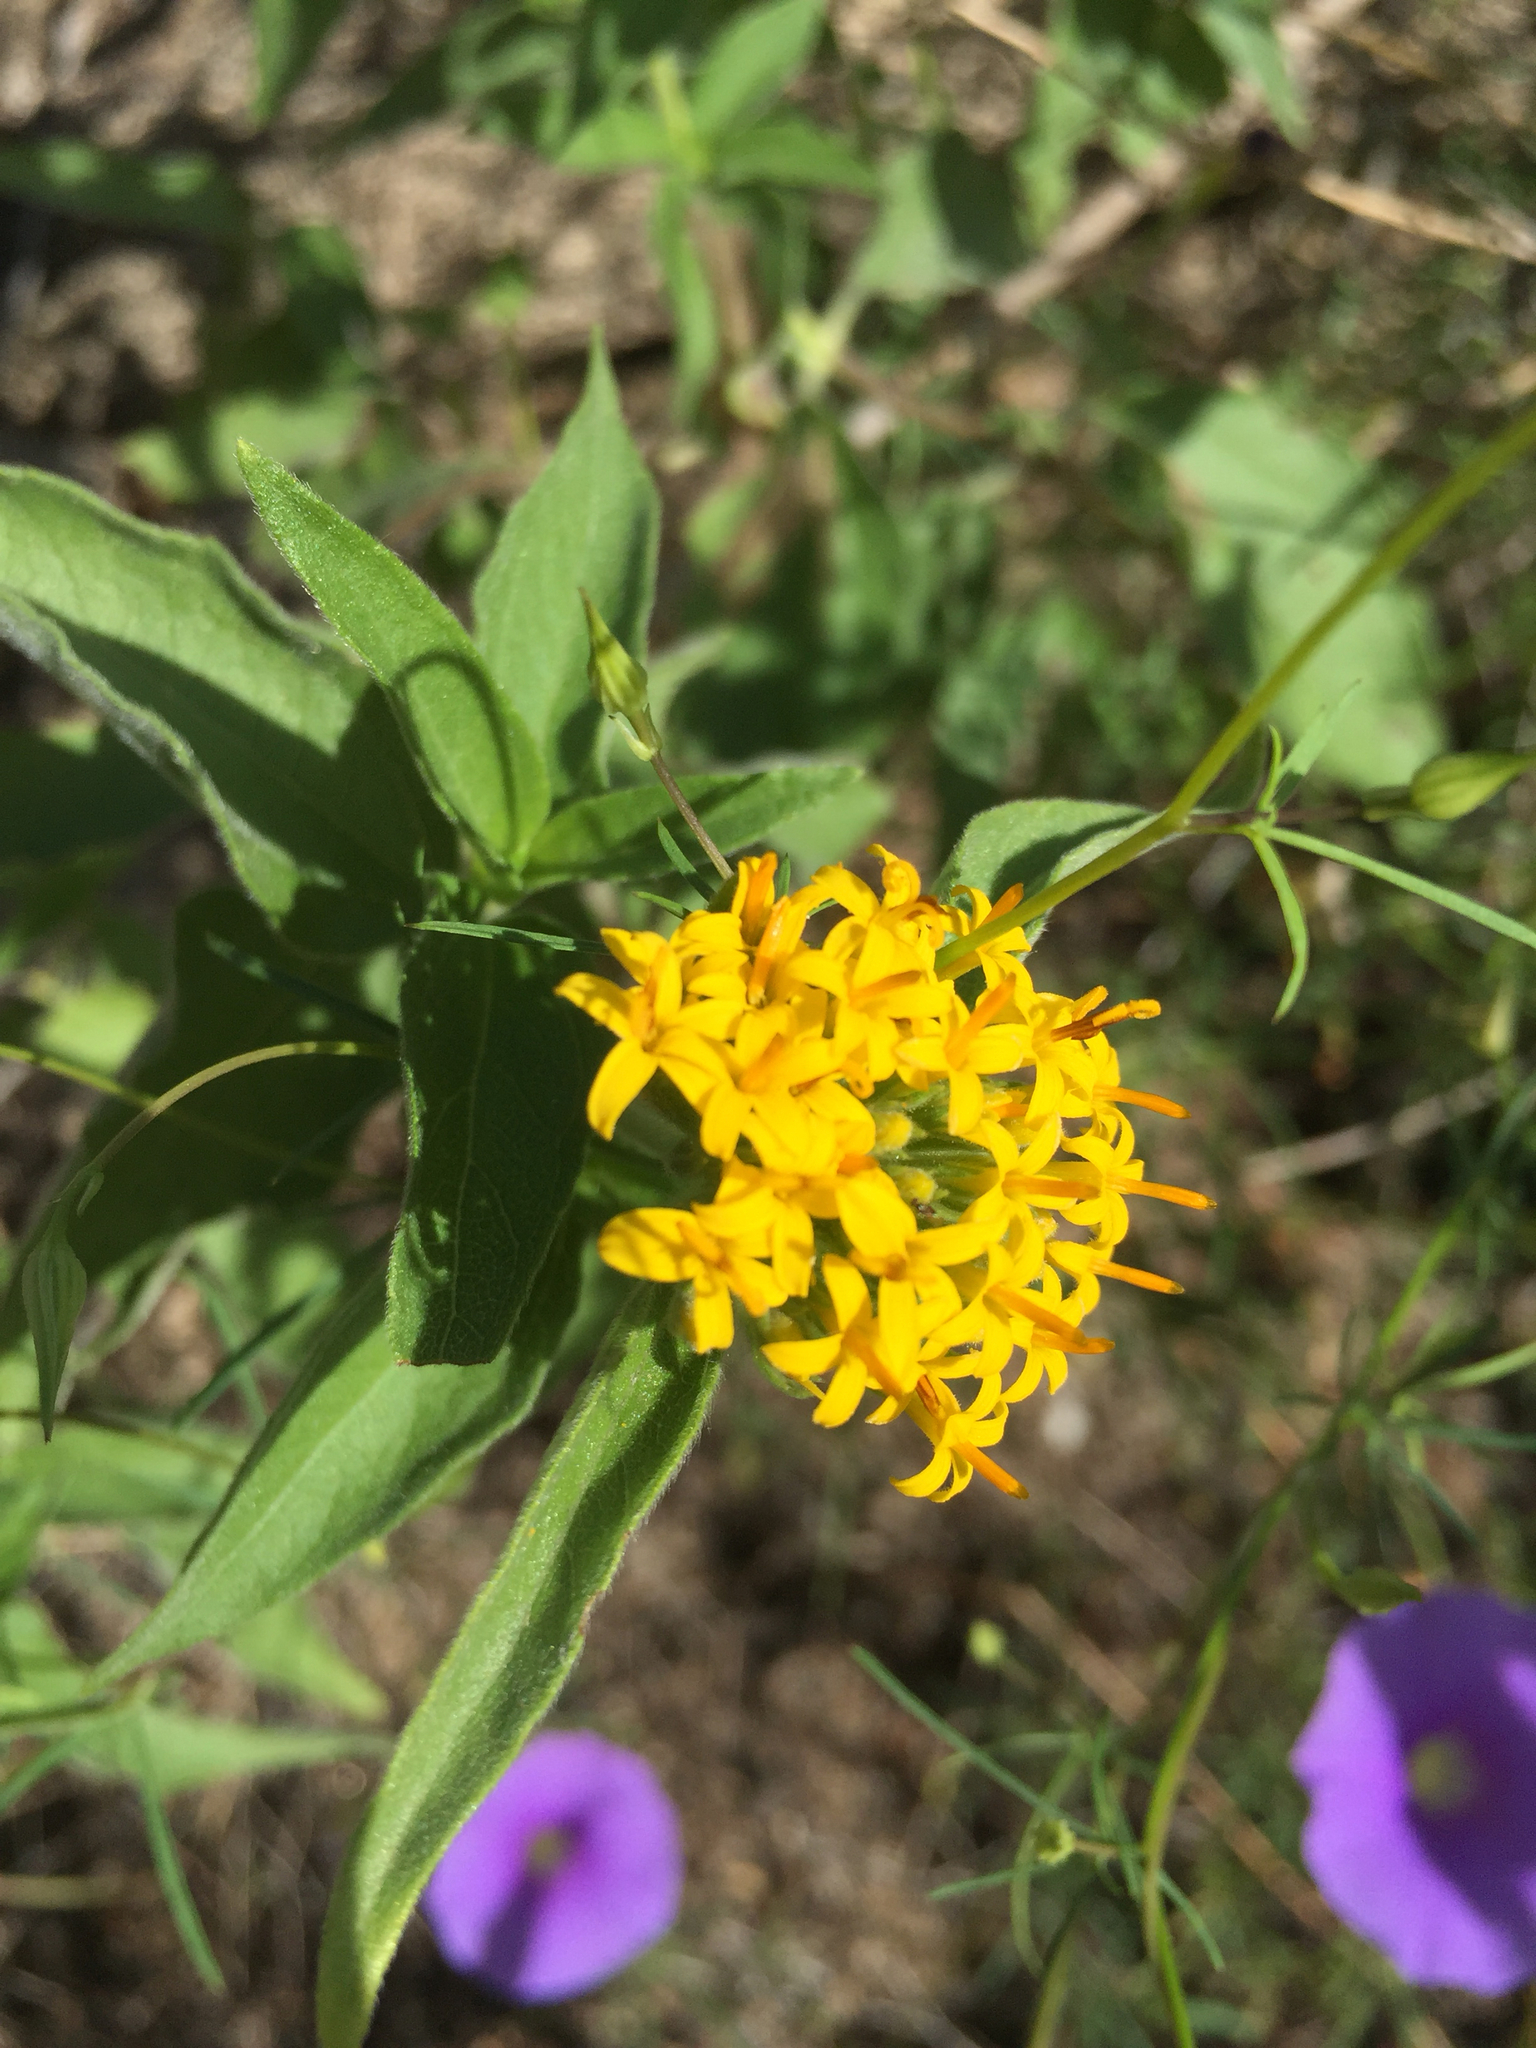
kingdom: Plantae
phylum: Tracheophyta
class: Magnoliopsida
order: Asterales
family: Asteraceae
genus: Lagascea
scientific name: Lagascea decipiens
